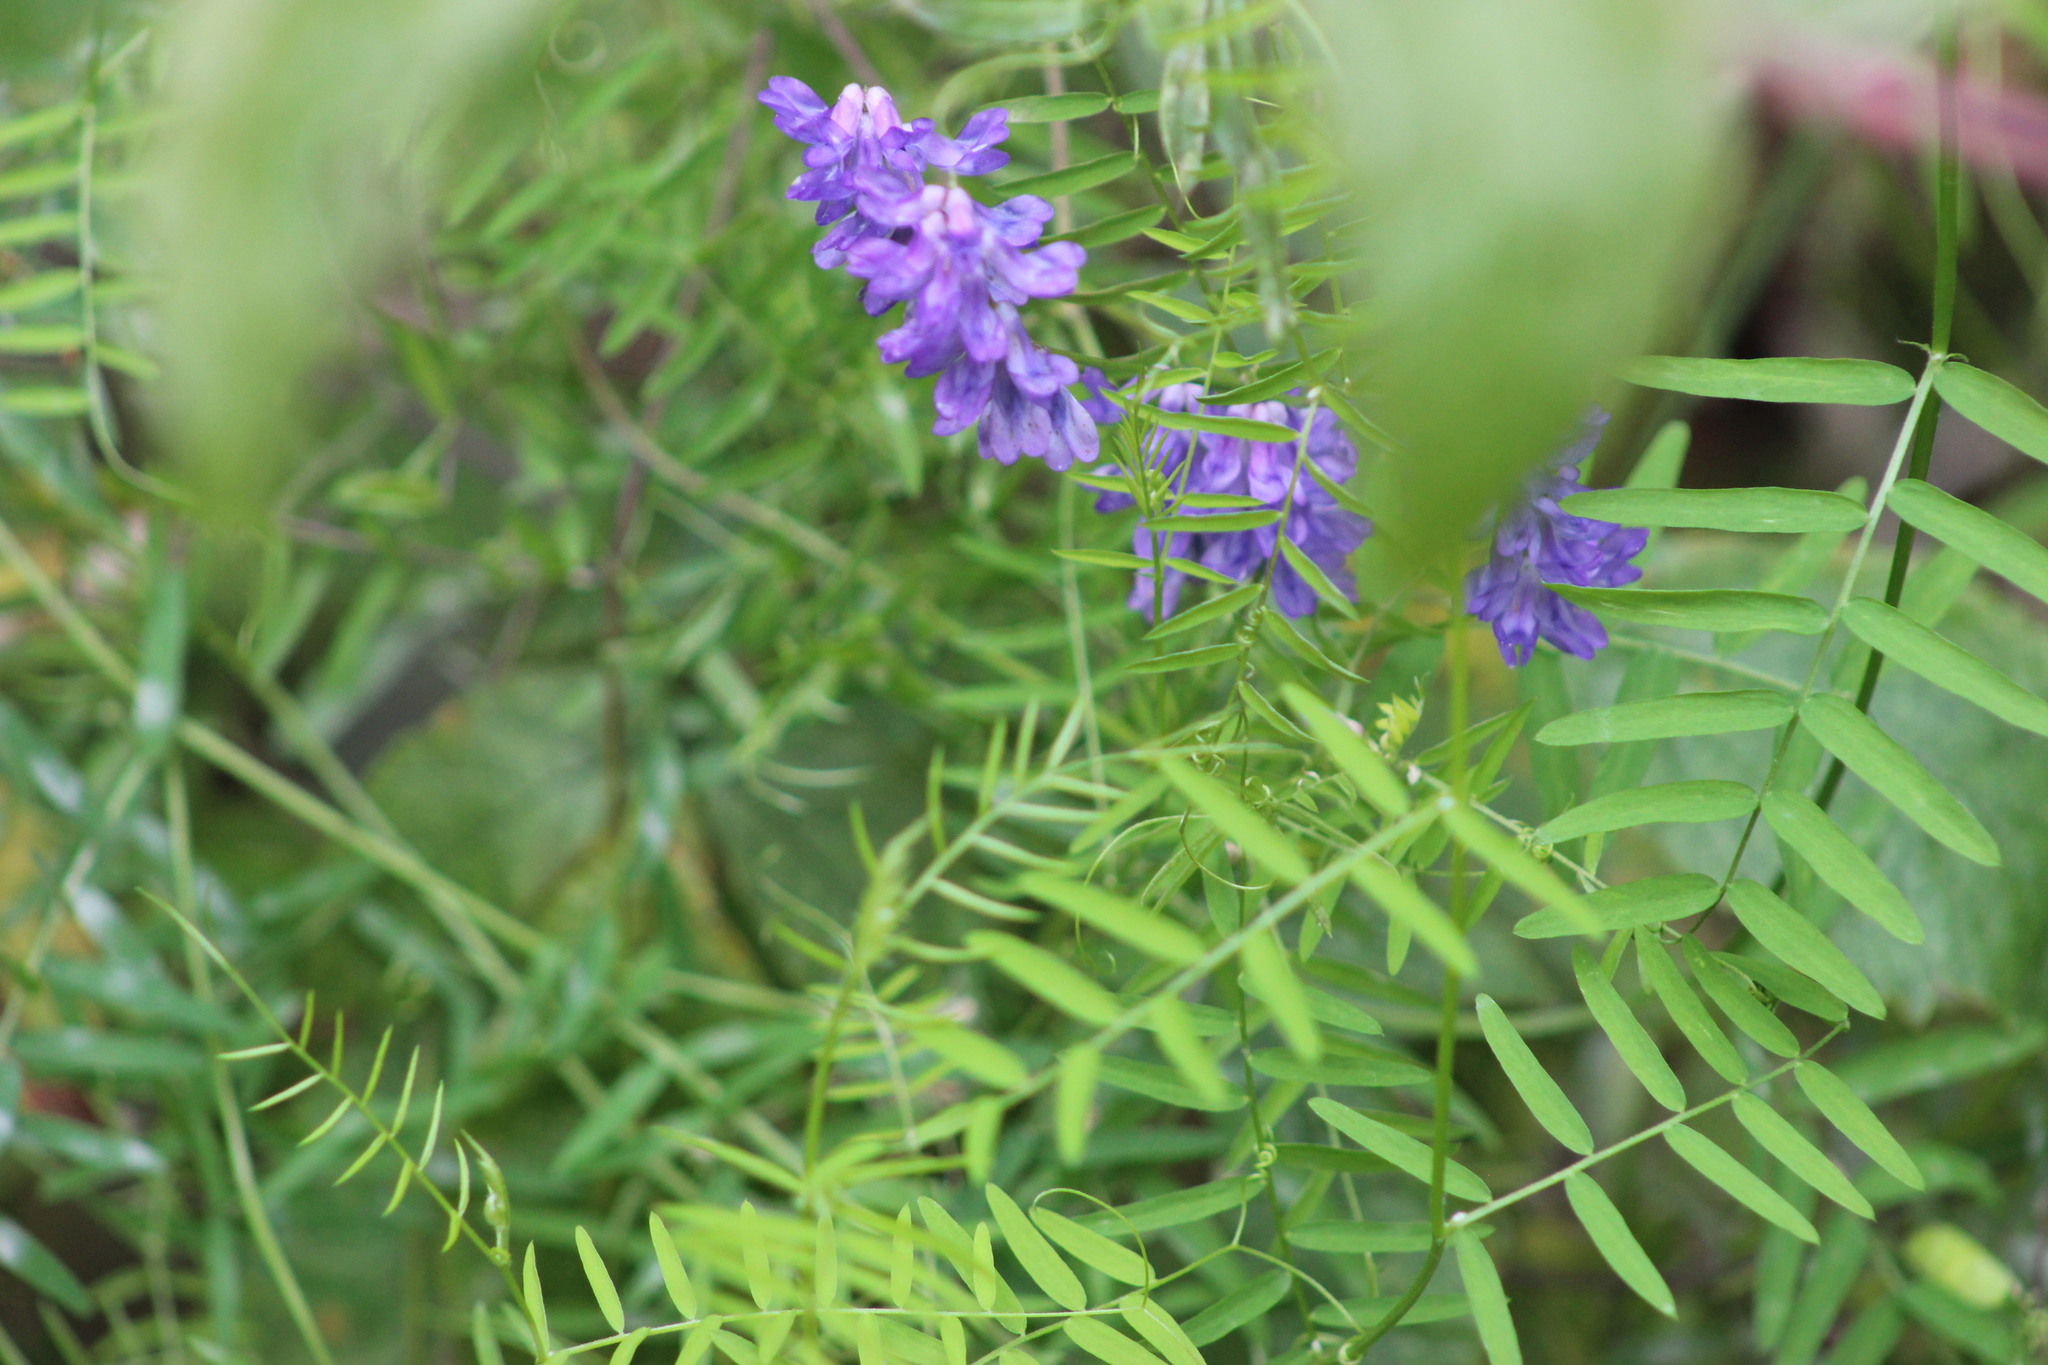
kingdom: Plantae
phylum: Tracheophyta
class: Magnoliopsida
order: Fabales
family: Fabaceae
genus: Vicia
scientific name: Vicia cracca
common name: Bird vetch
